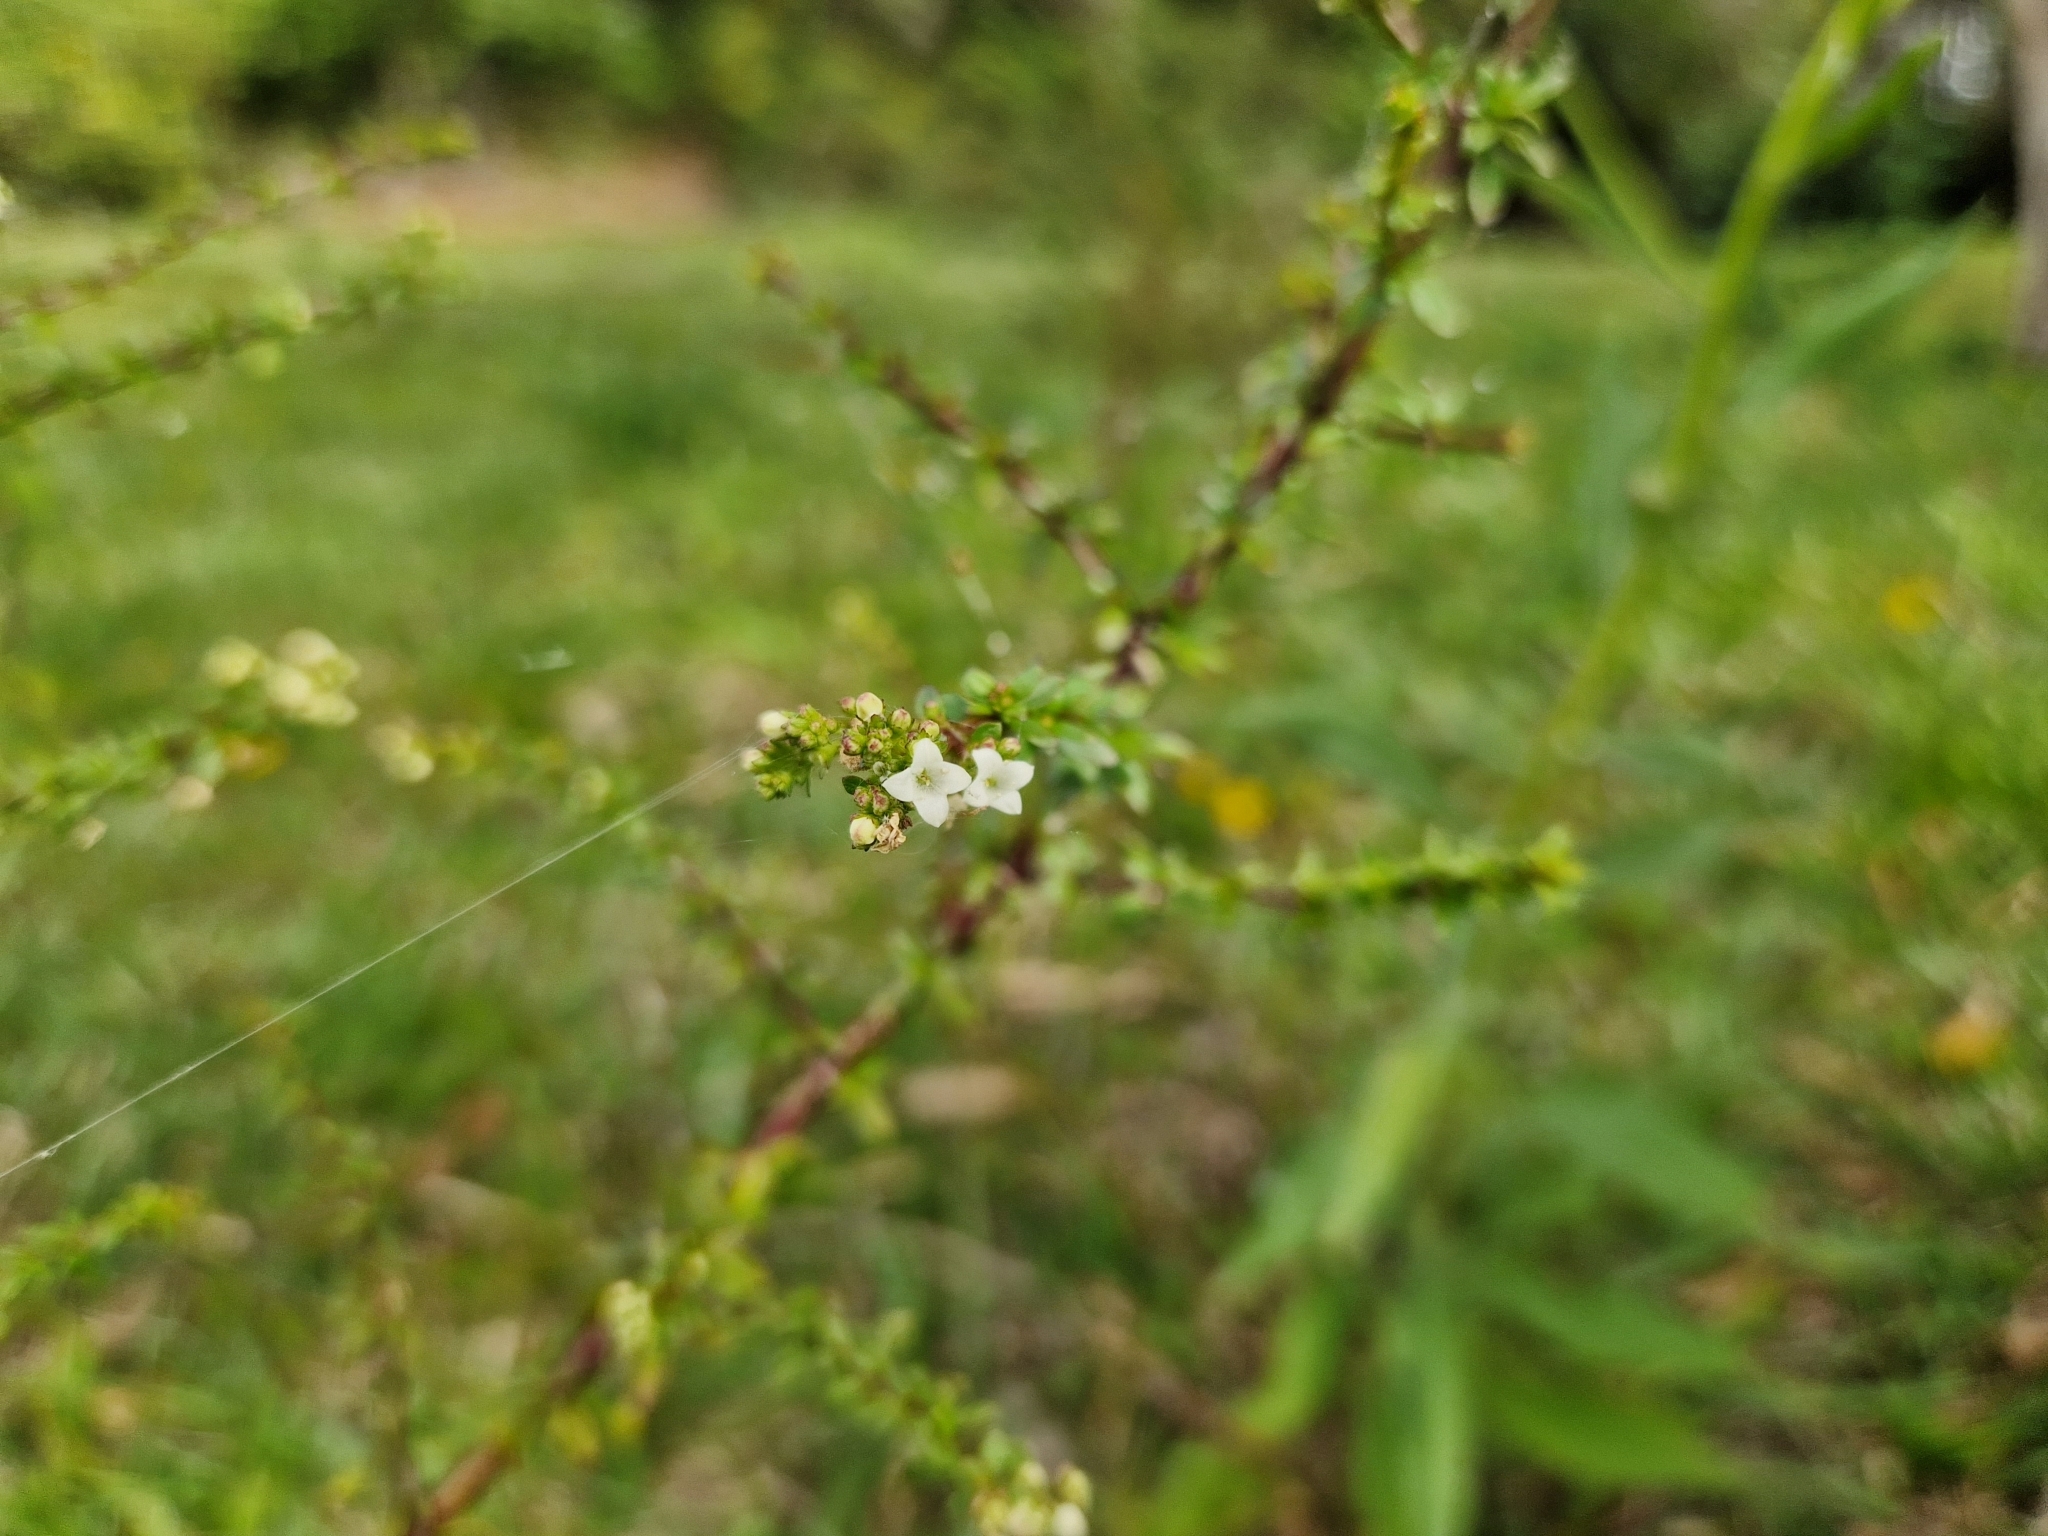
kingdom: Plantae
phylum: Tracheophyta
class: Magnoliopsida
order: Gentianales
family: Rubiaceae
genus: Galianthe
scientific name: Galianthe brasiliensis
